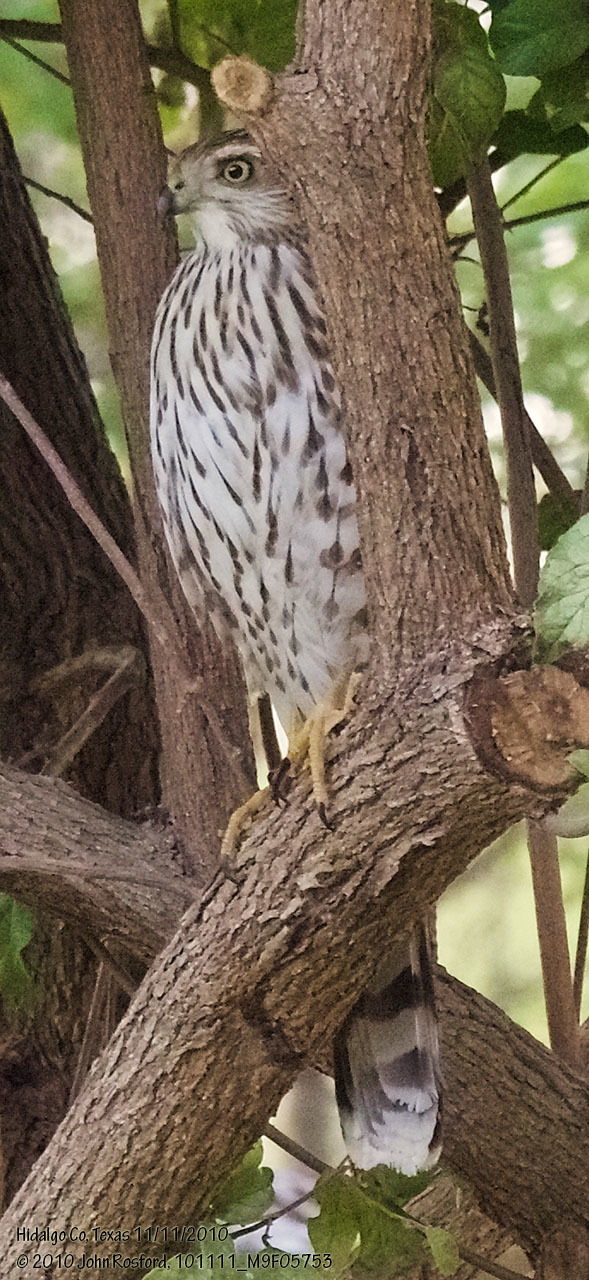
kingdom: Animalia
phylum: Chordata
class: Aves
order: Accipitriformes
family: Accipitridae
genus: Accipiter
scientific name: Accipiter cooperii
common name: Cooper's hawk
